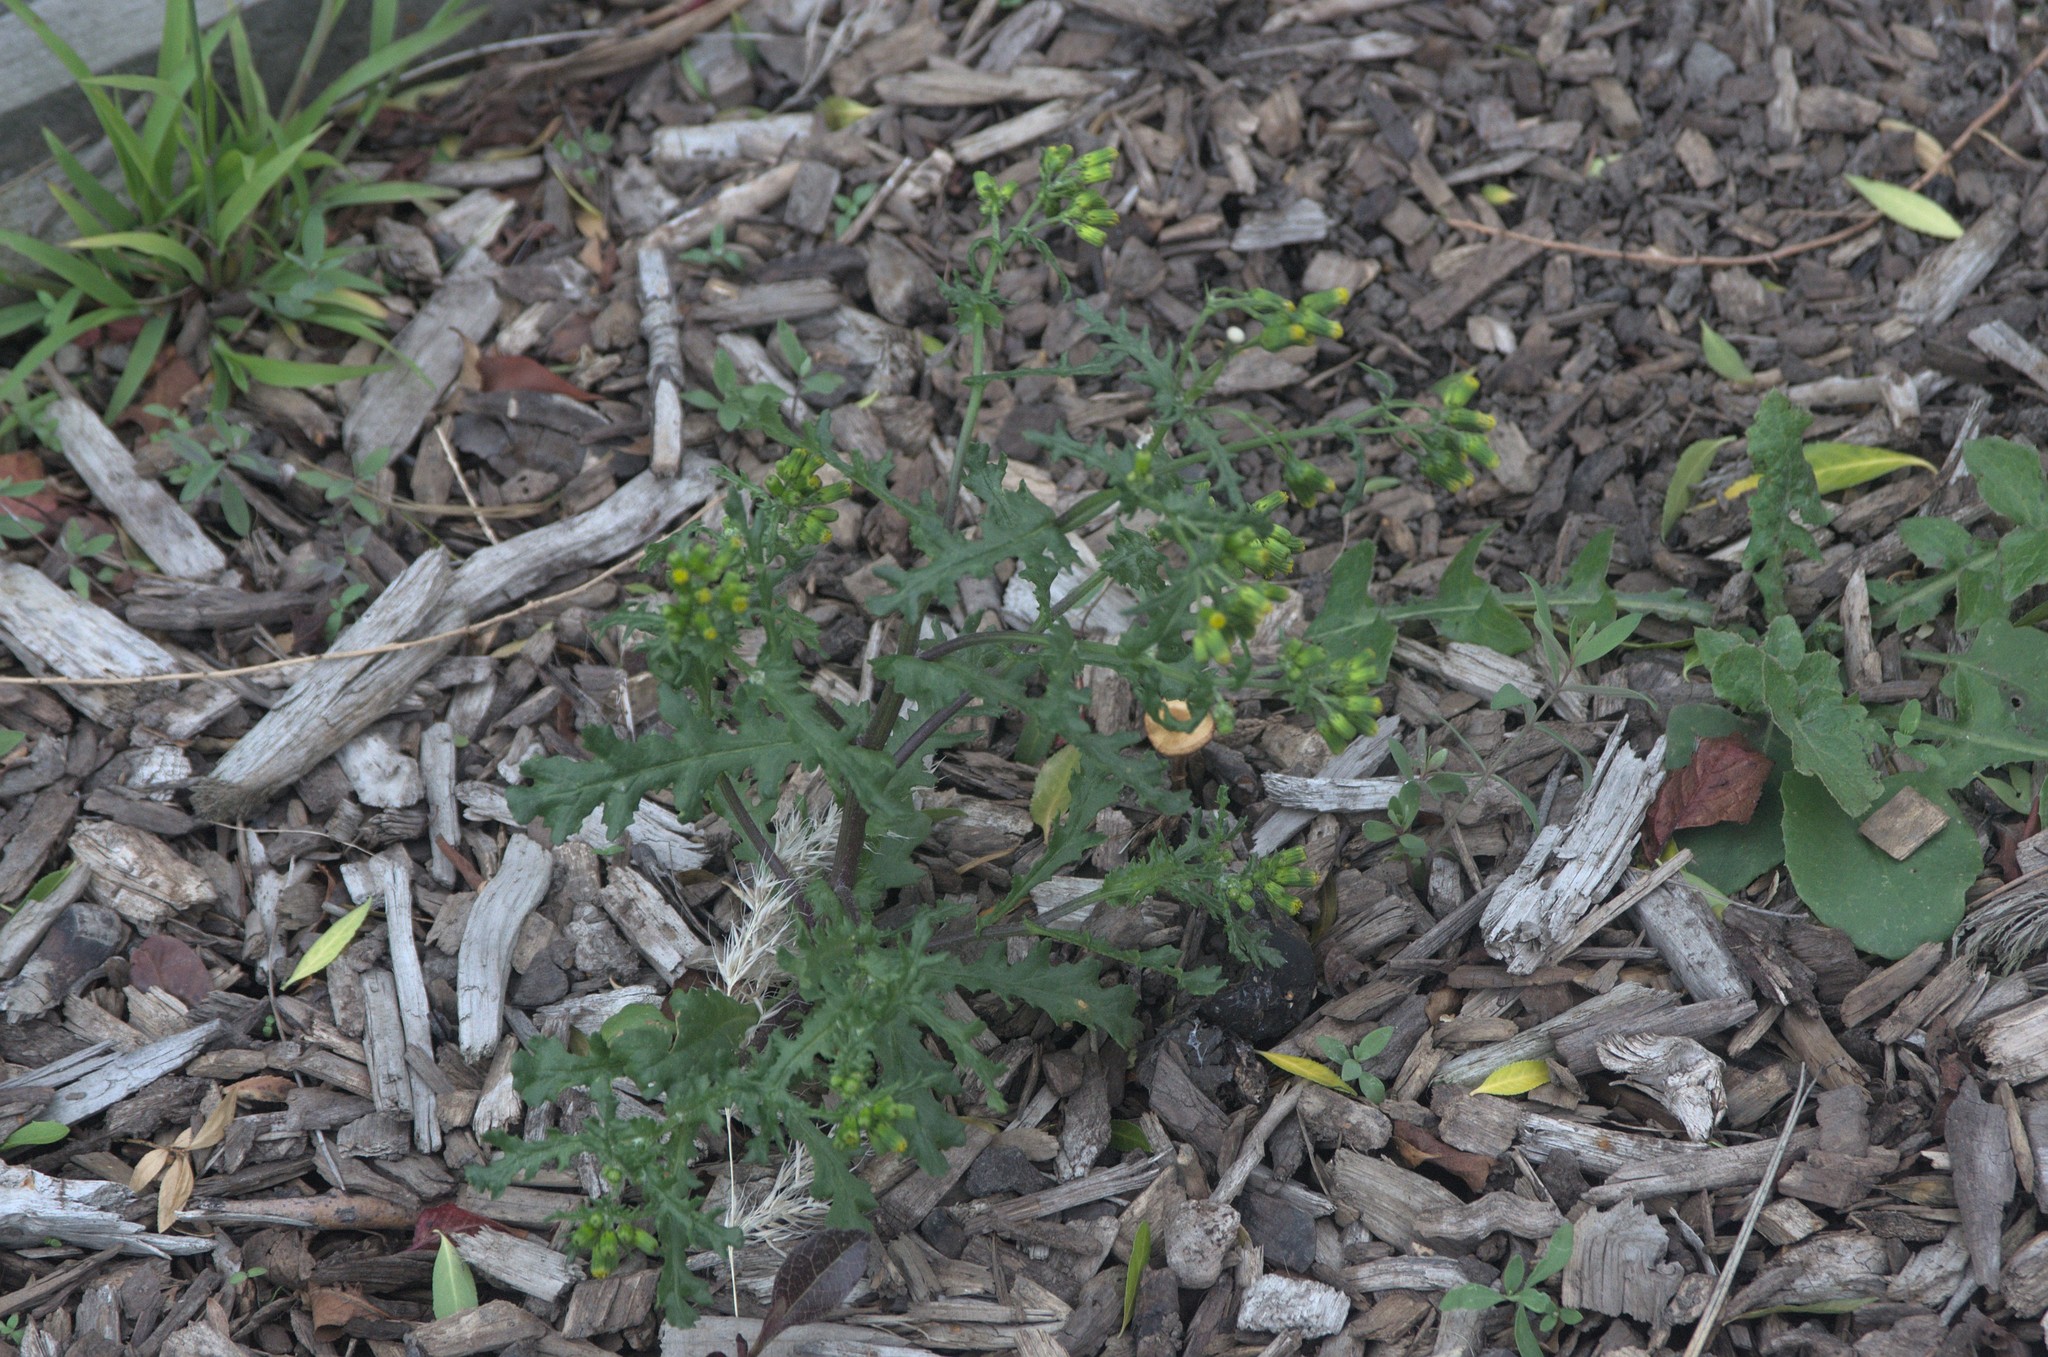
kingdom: Plantae
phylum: Tracheophyta
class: Magnoliopsida
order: Asterales
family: Asteraceae
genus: Senecio
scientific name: Senecio vulgaris
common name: Old-man-in-the-spring
